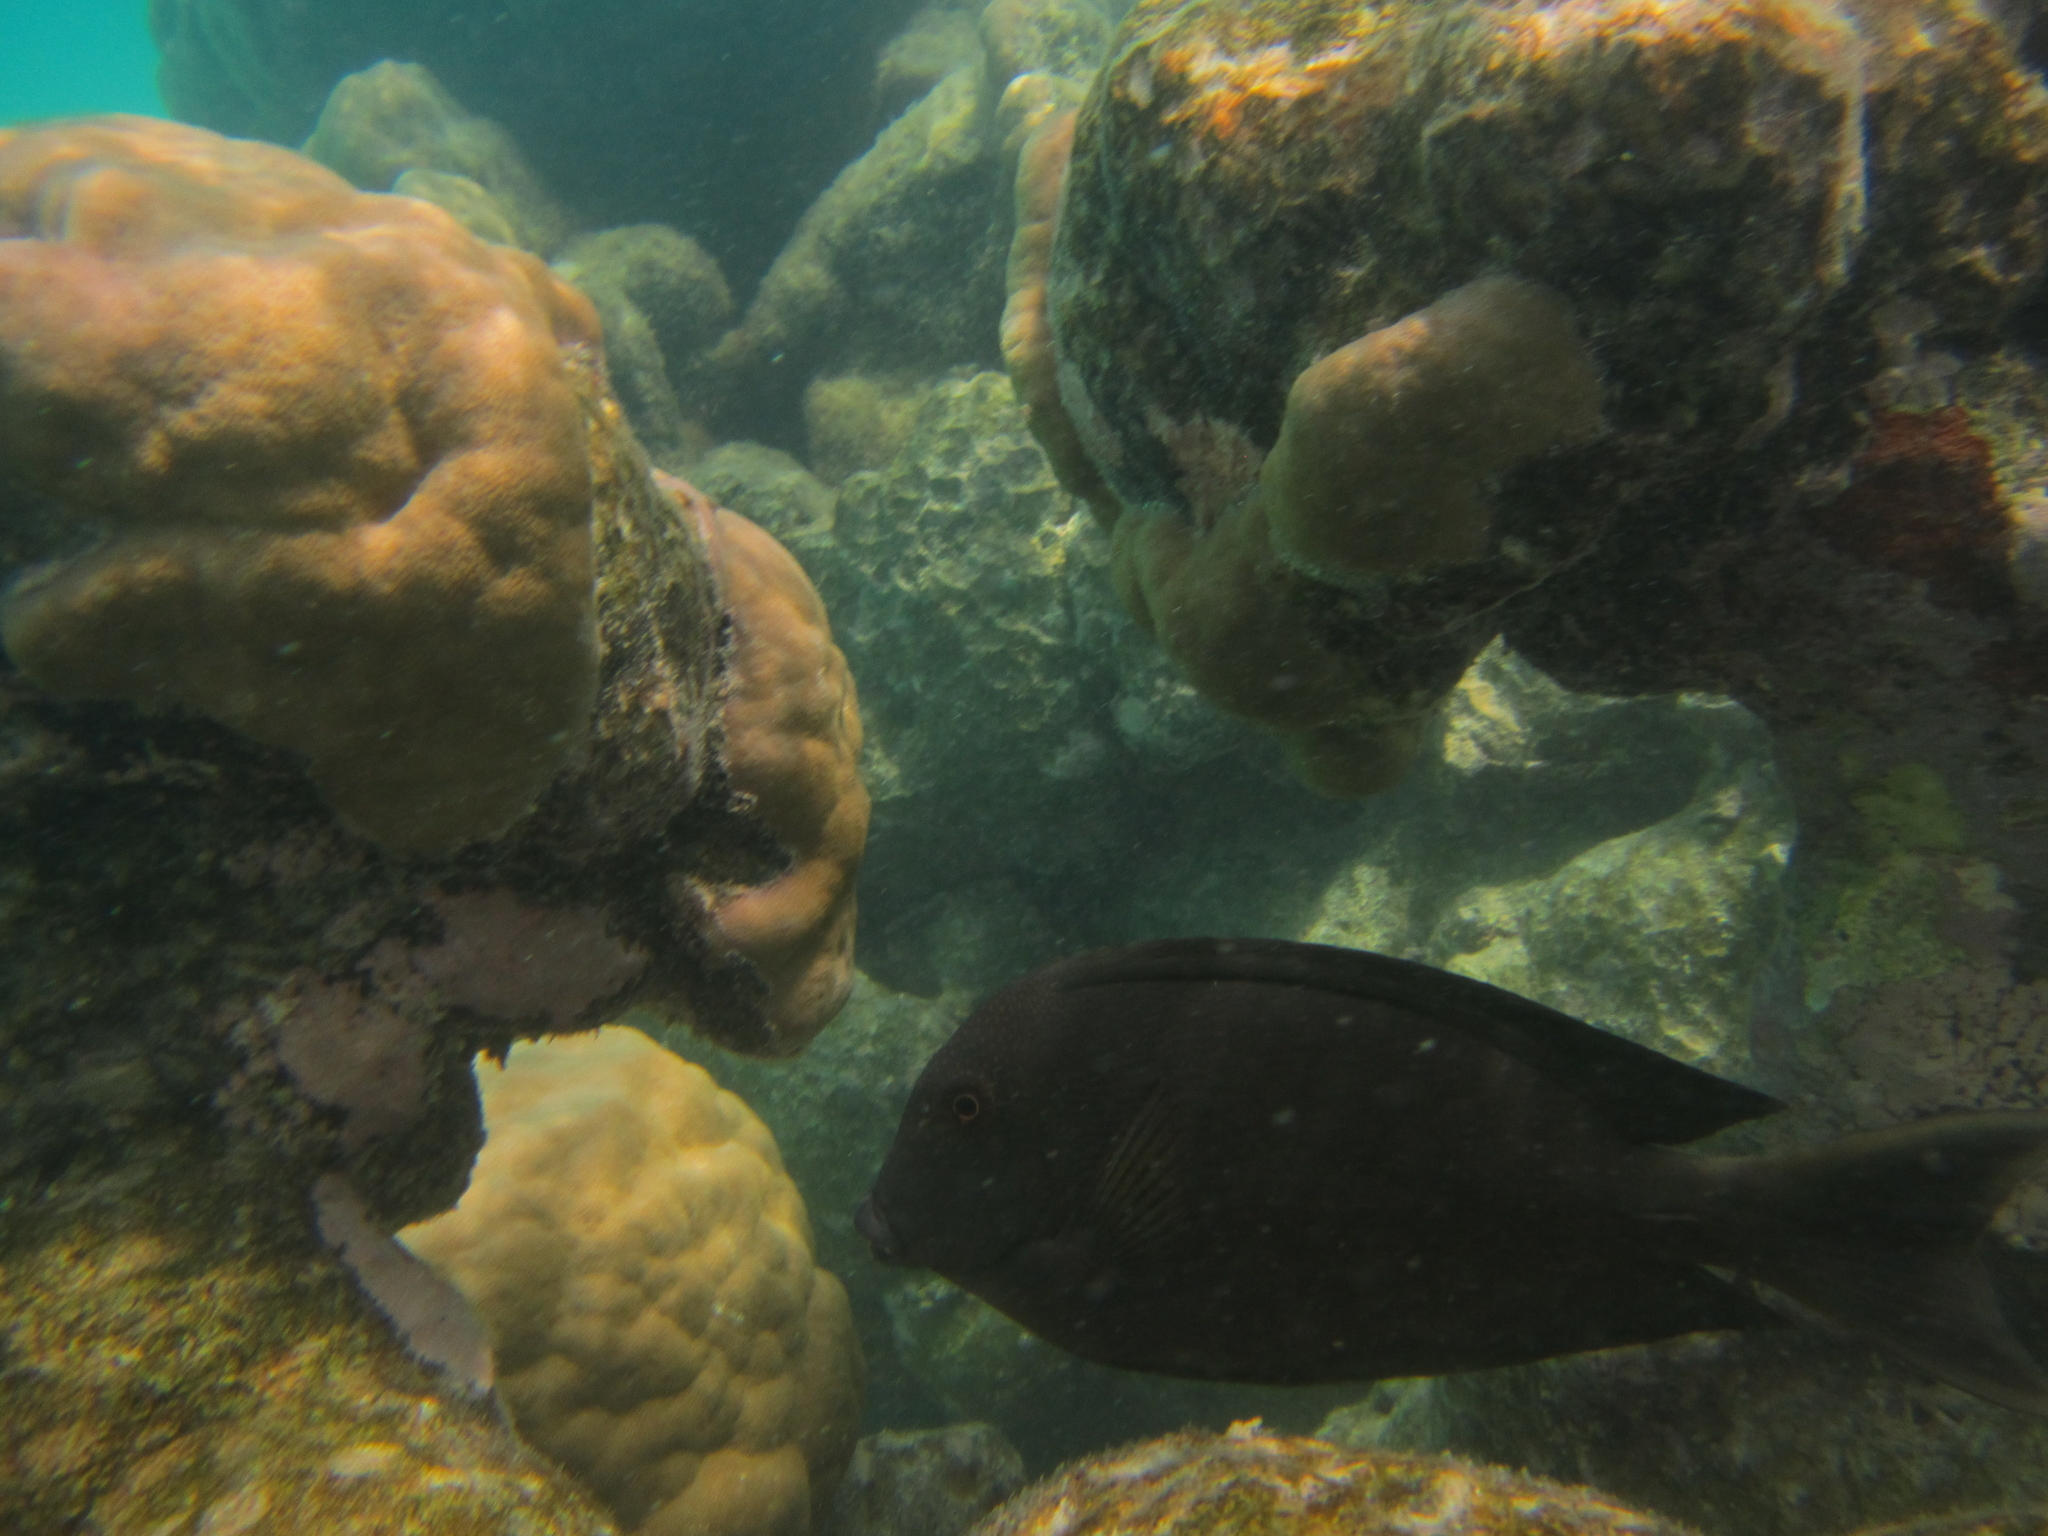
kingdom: Animalia
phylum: Chordata
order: Perciformes
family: Acanthuridae
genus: Ctenochaetus
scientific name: Ctenochaetus striatus
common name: Bristle-toothed surgeonfish
